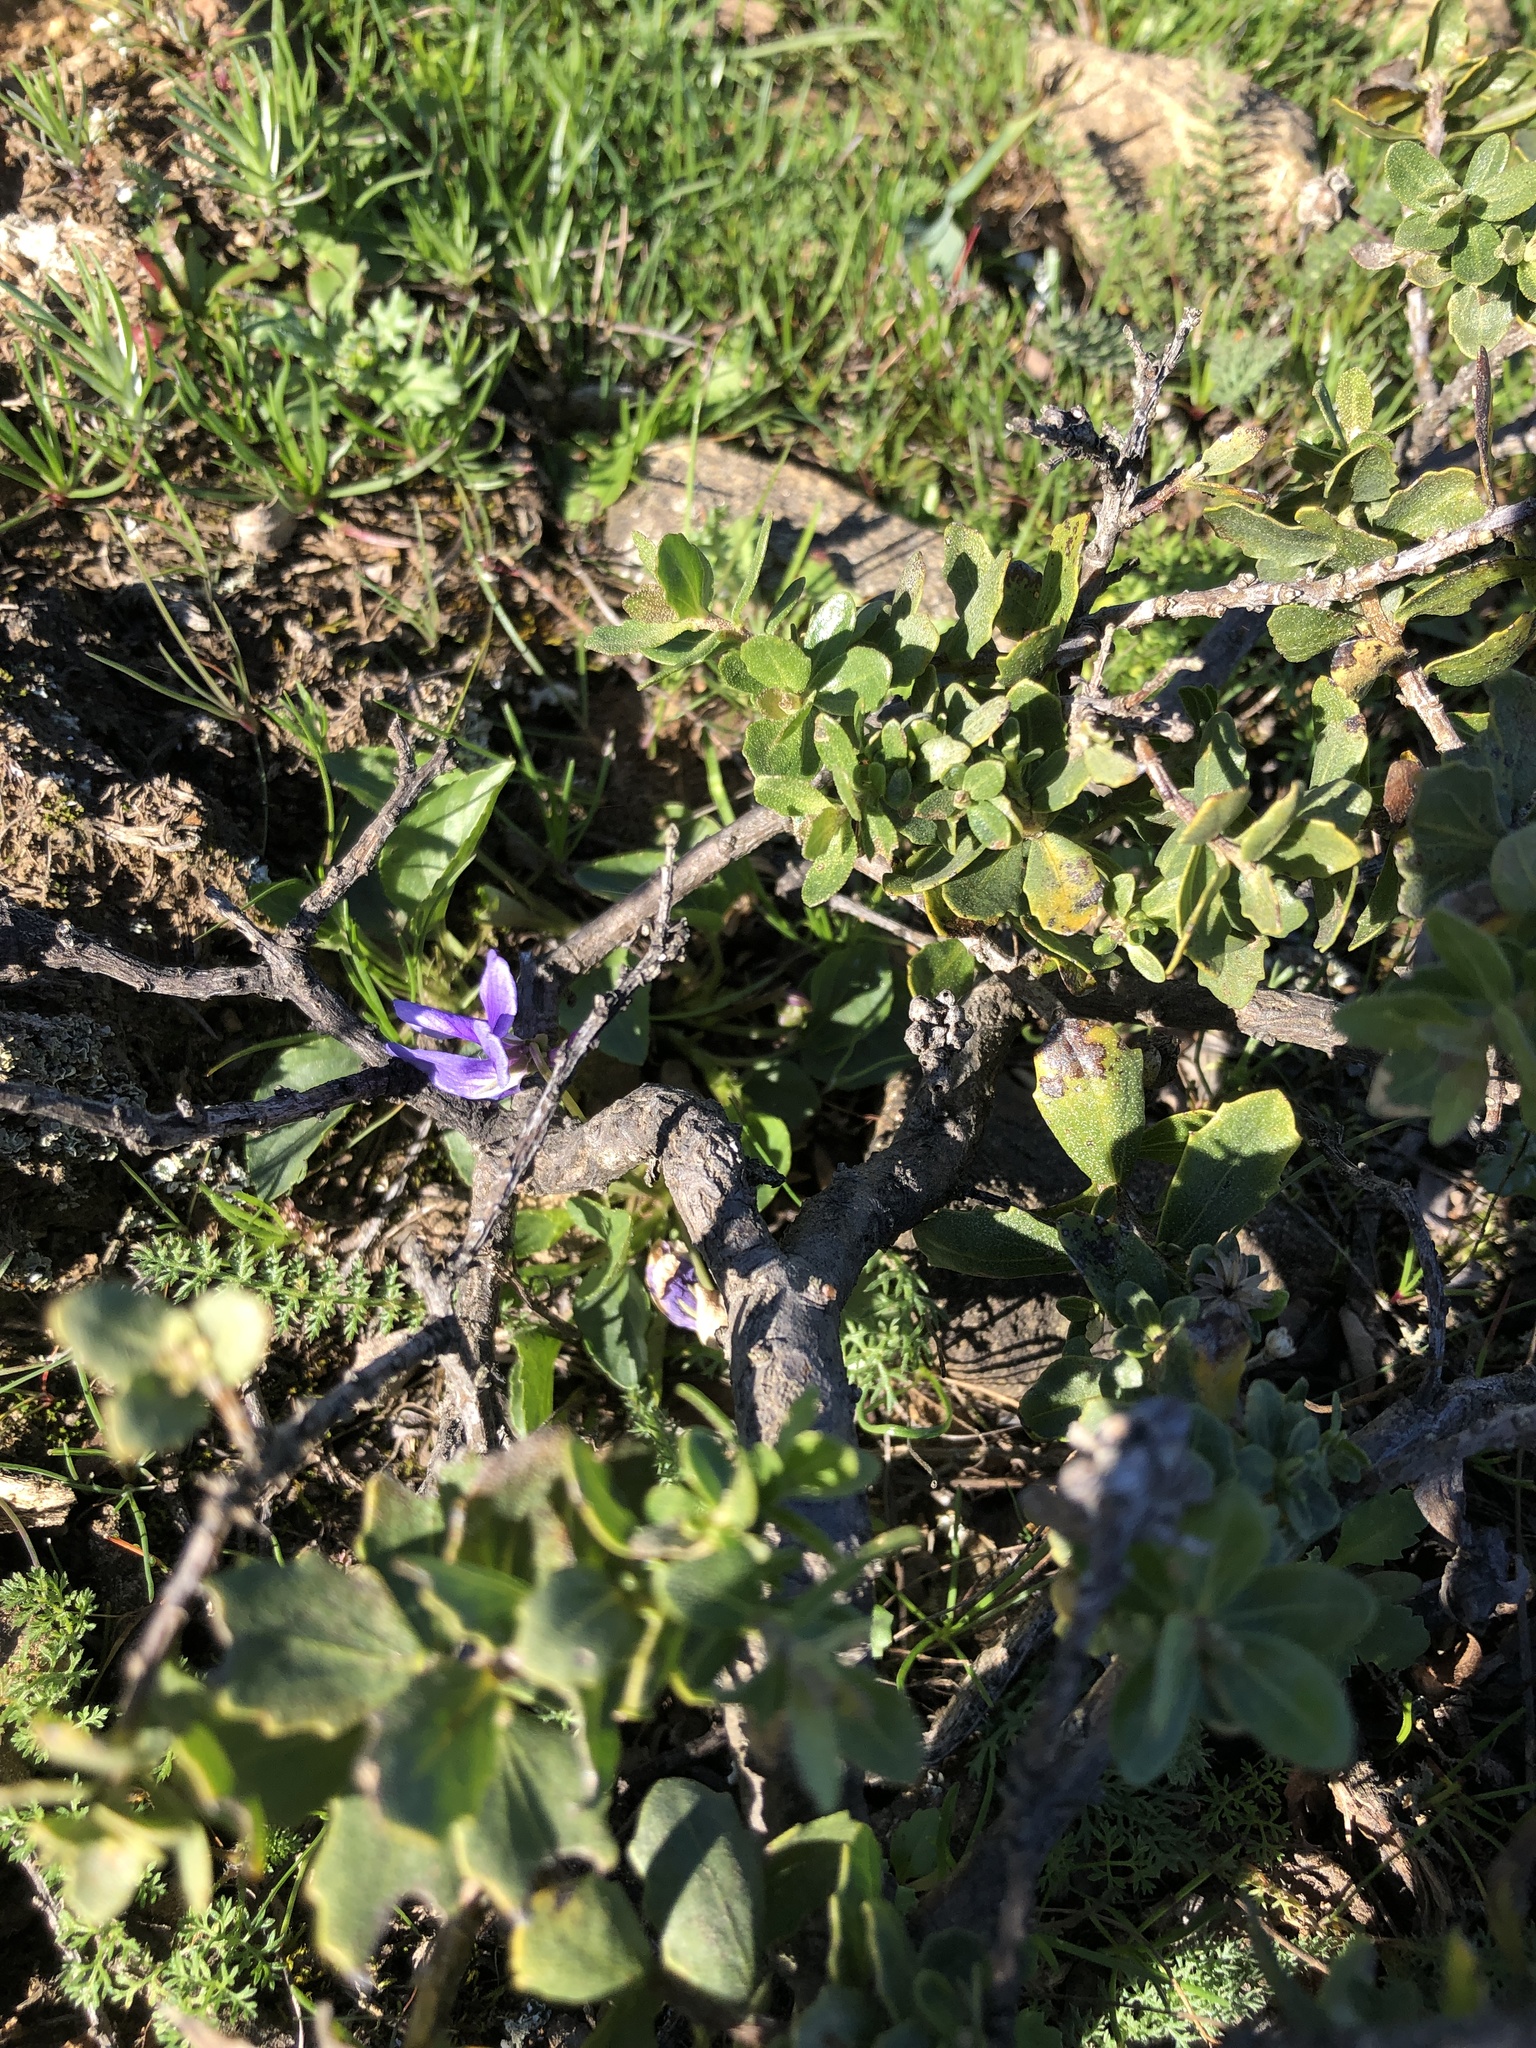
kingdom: Plantae
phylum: Tracheophyta
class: Magnoliopsida
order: Malpighiales
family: Violaceae
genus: Viola
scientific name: Viola adunca
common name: Sand violet
